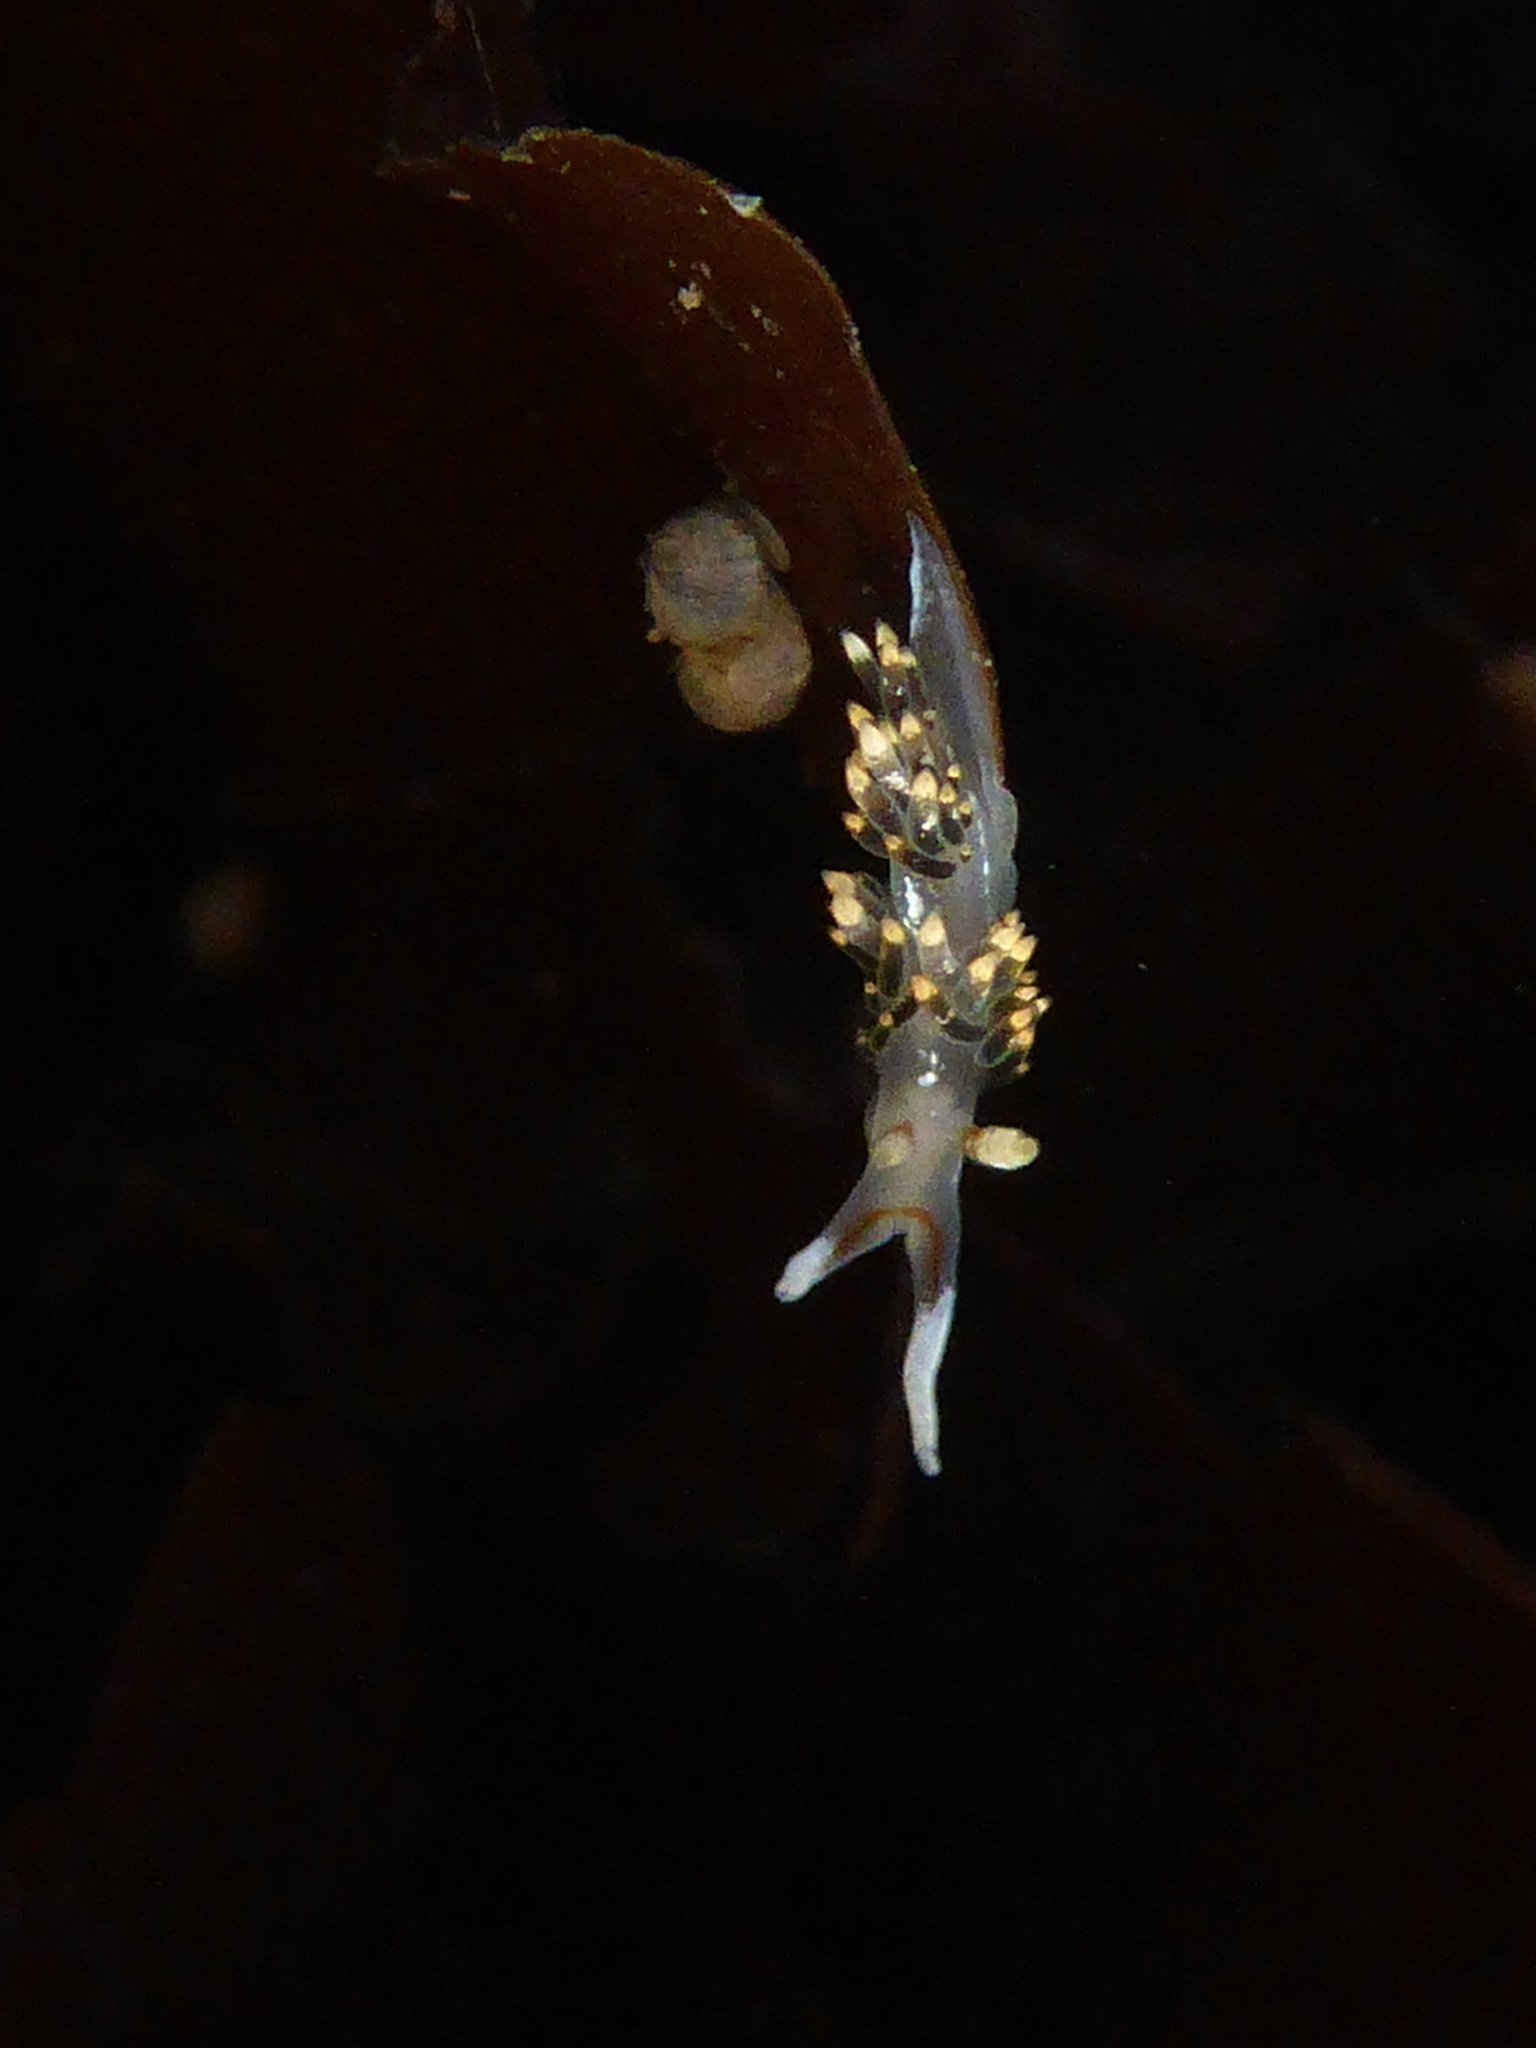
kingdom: Animalia
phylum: Mollusca
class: Gastropoda
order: Nudibranchia
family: Facelinidae
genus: Phidiana
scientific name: Phidiana hiltoni
